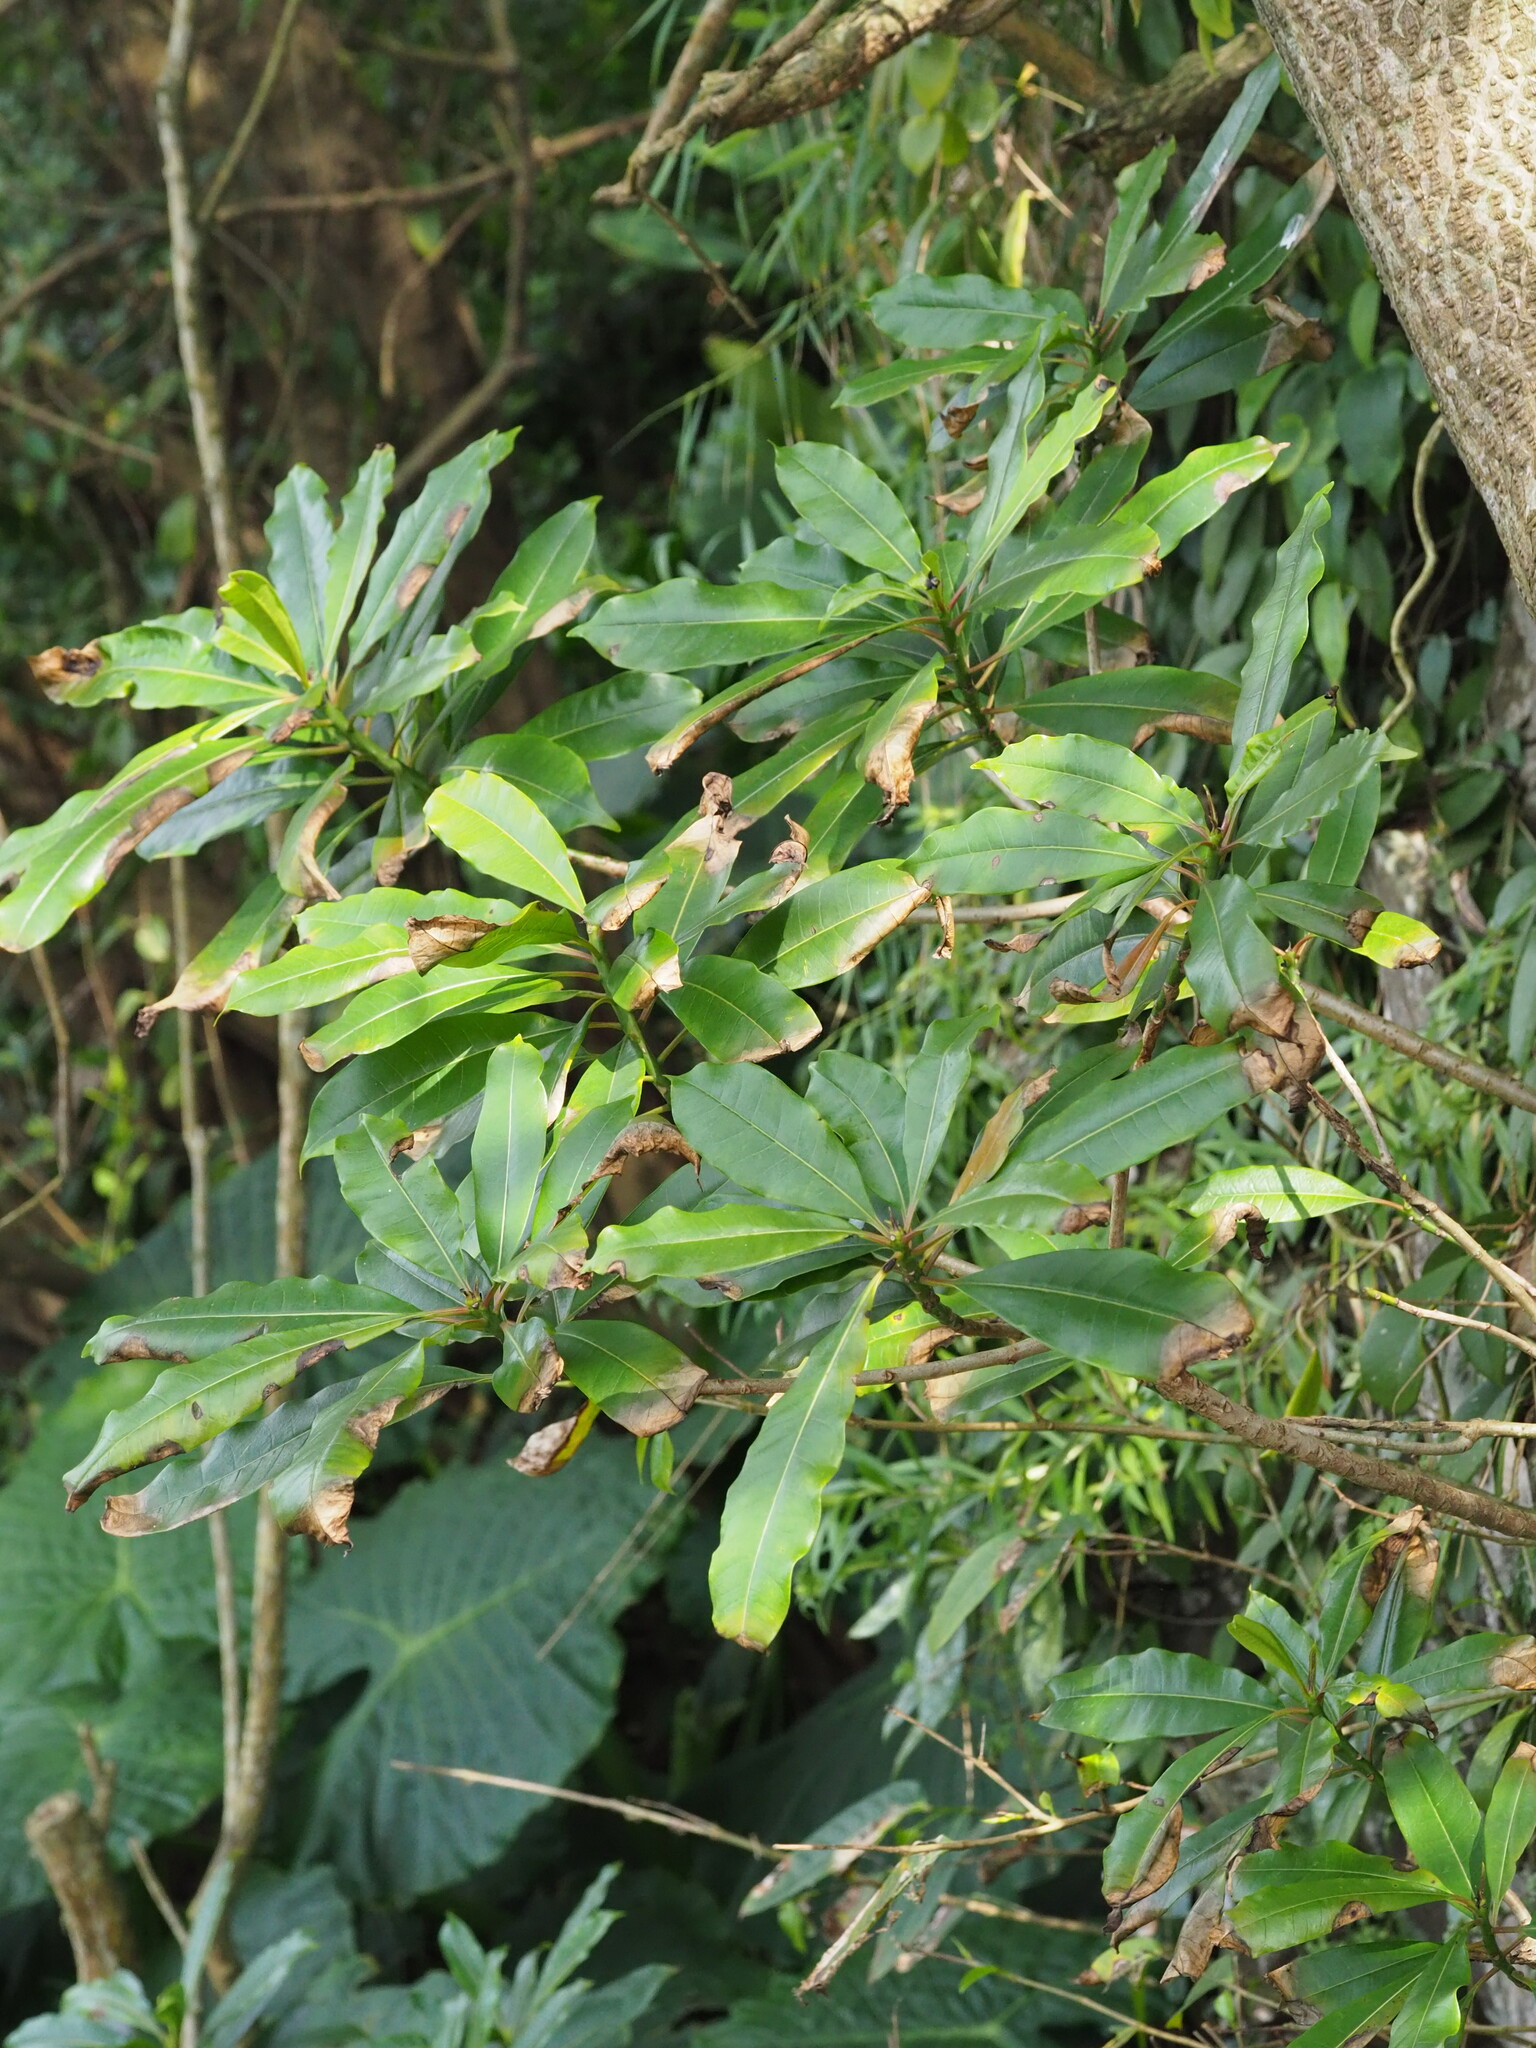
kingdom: Plantae
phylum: Tracheophyta
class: Magnoliopsida
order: Gentianales
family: Apocynaceae
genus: Cerbera
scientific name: Cerbera manghas
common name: Reva
